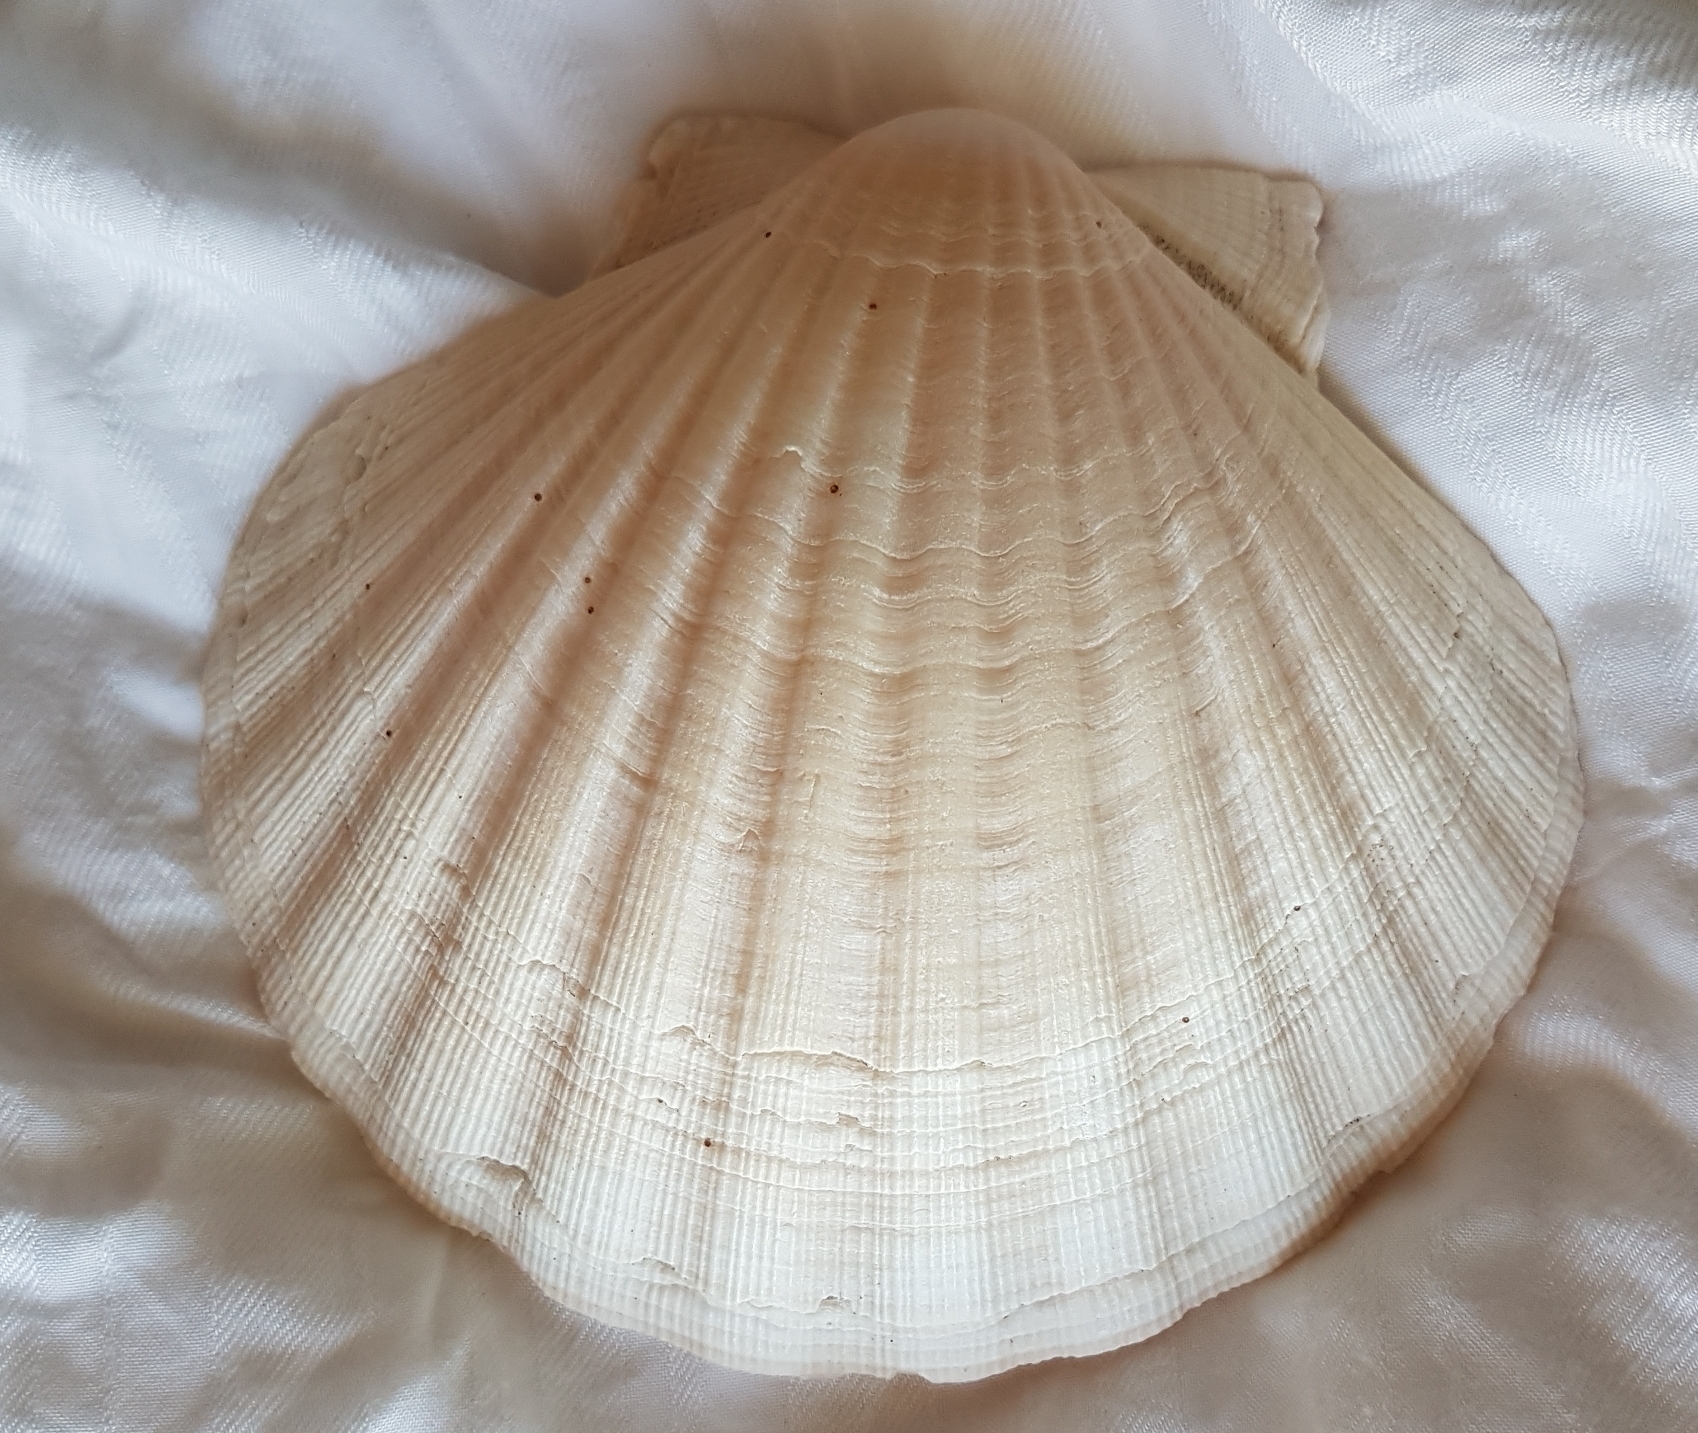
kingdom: Animalia
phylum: Mollusca
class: Bivalvia
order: Pectinida
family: Pectinidae
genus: Pecten
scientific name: Pecten maximus
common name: Great scallop
